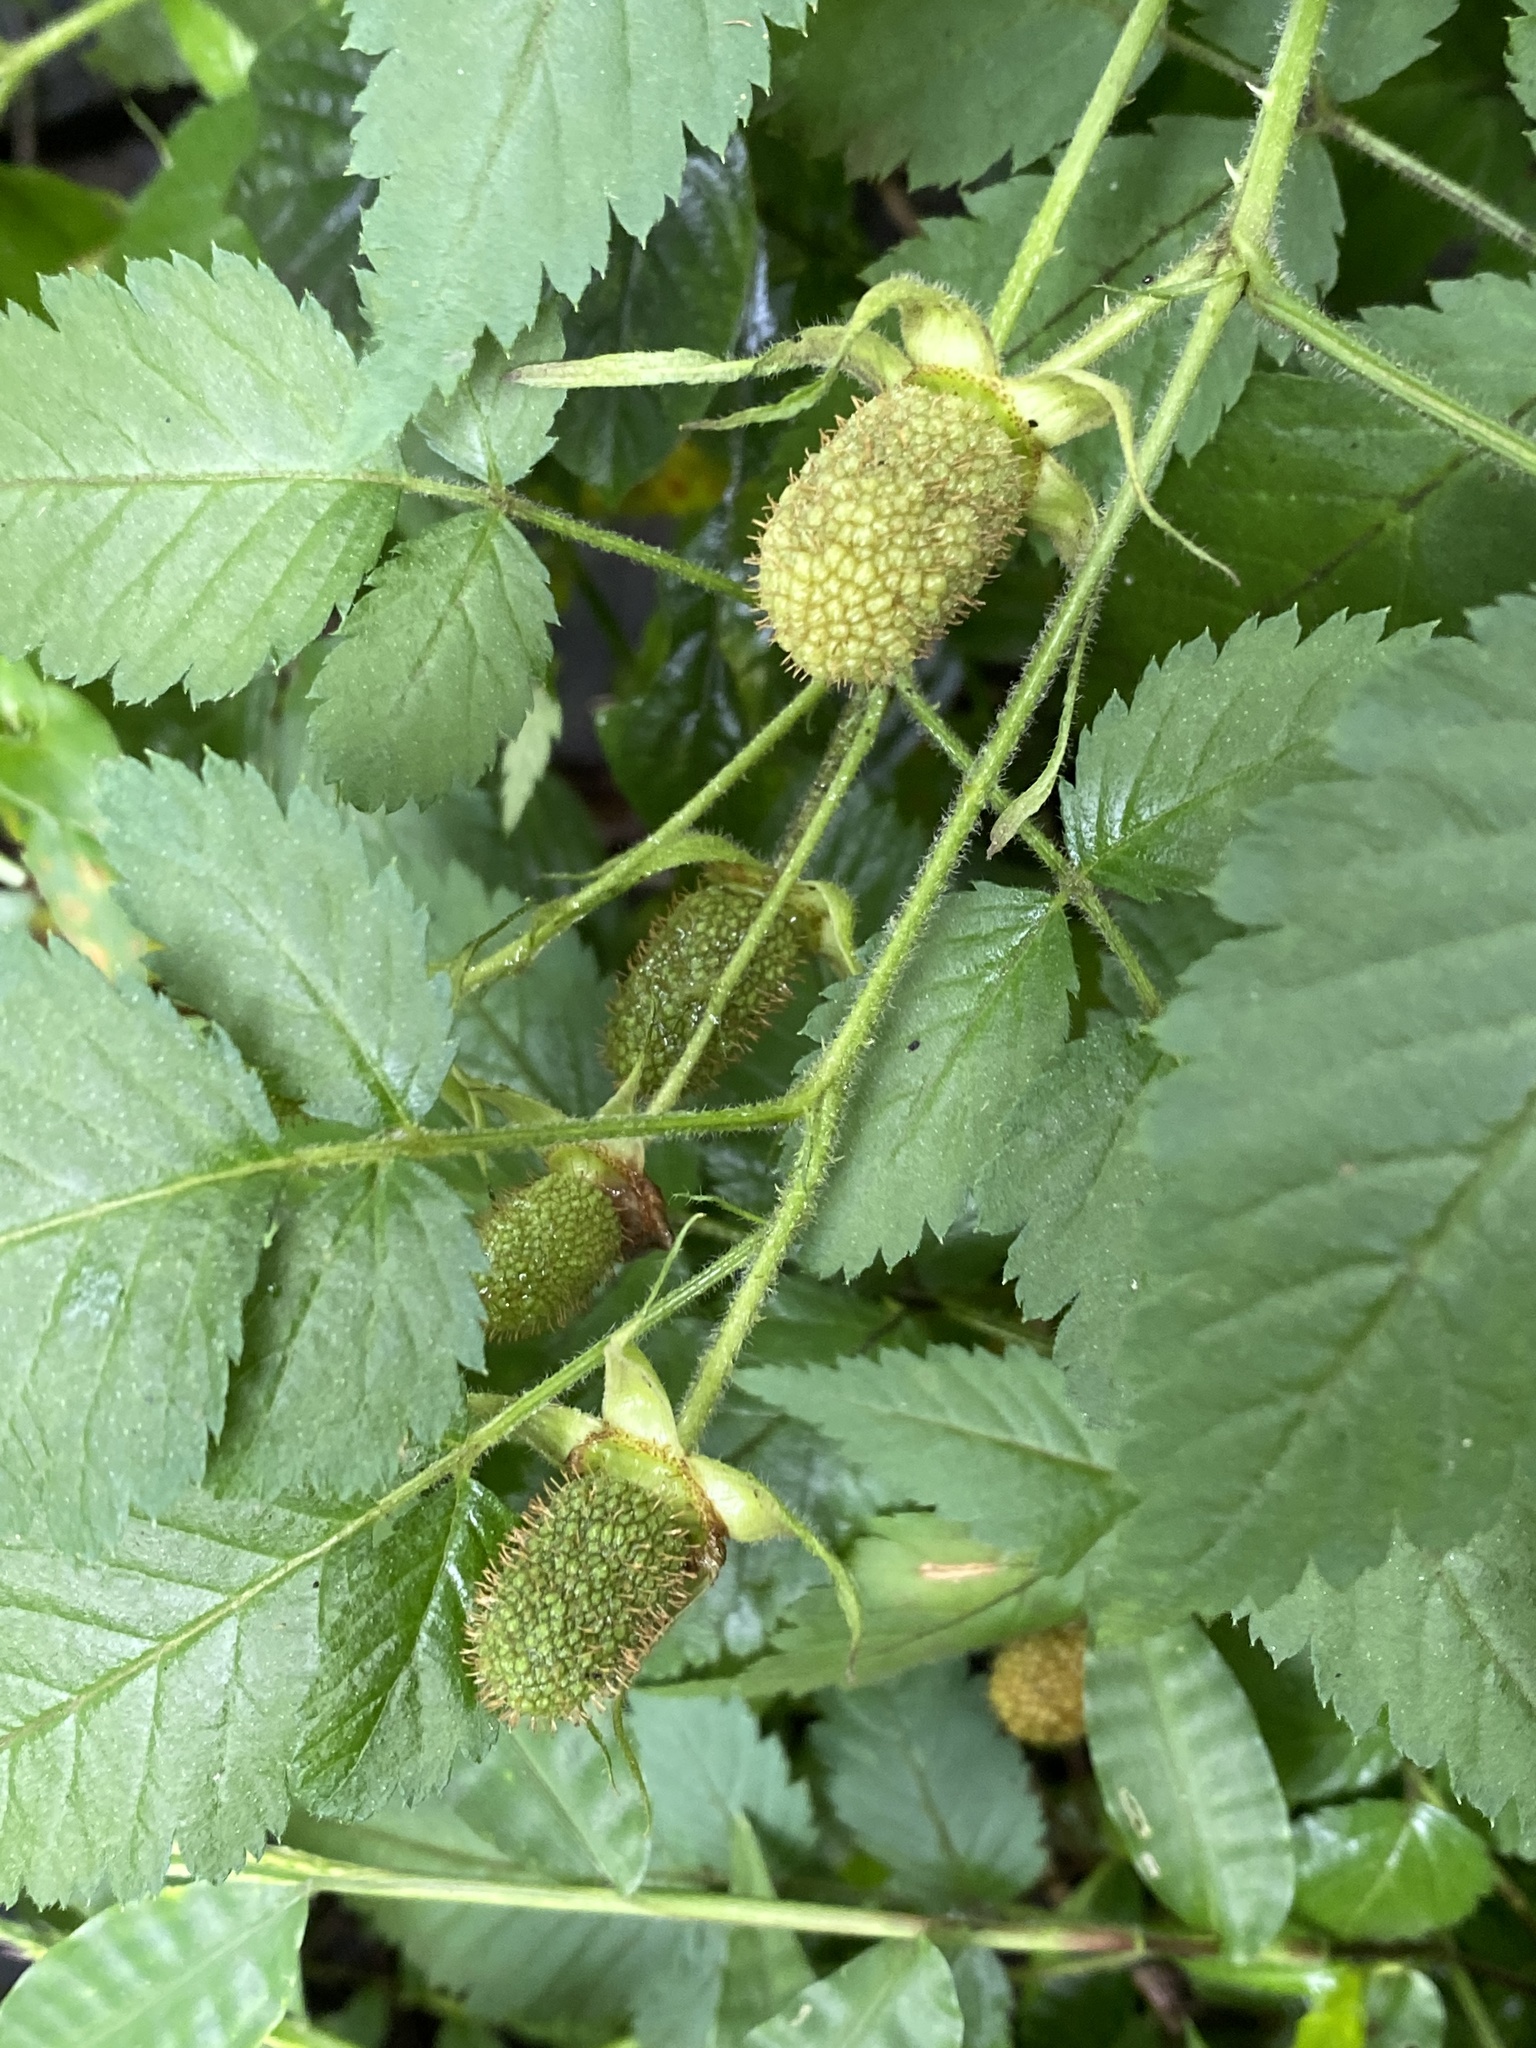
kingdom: Plantae
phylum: Tracheophyta
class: Magnoliopsida
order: Rosales
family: Rosaceae
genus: Rubus
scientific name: Rubus rosifolius
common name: Roseleaf raspberry
